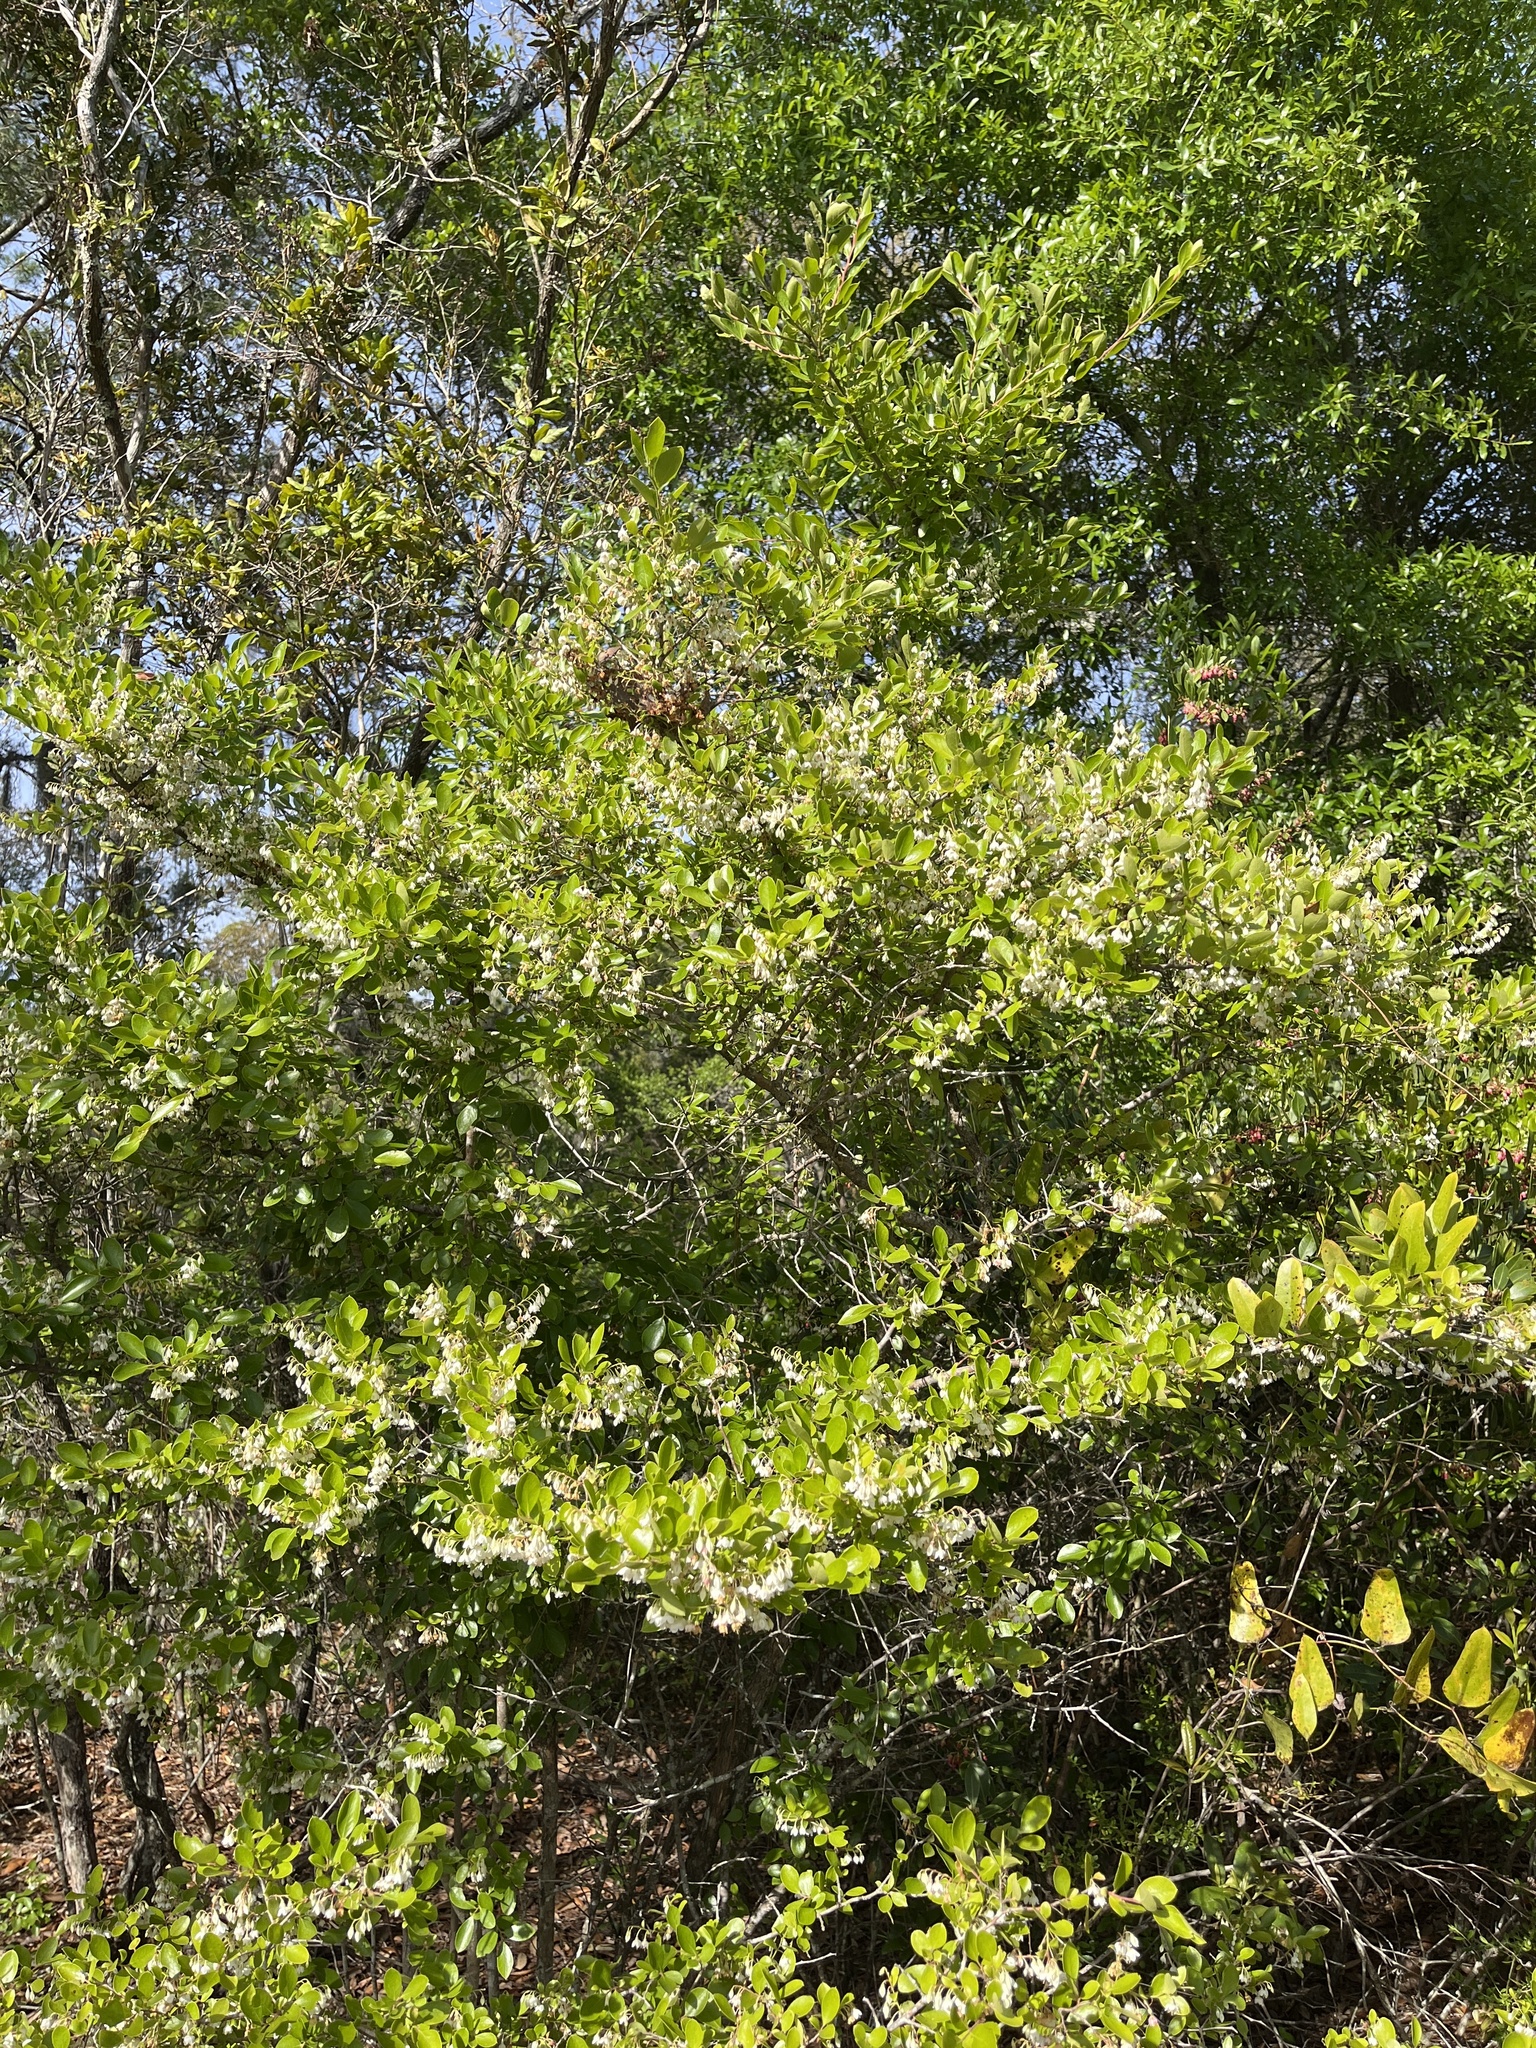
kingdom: Plantae
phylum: Tracheophyta
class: Magnoliopsida
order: Ericales
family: Ericaceae
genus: Vaccinium
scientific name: Vaccinium arboreum
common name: Farkleberry
